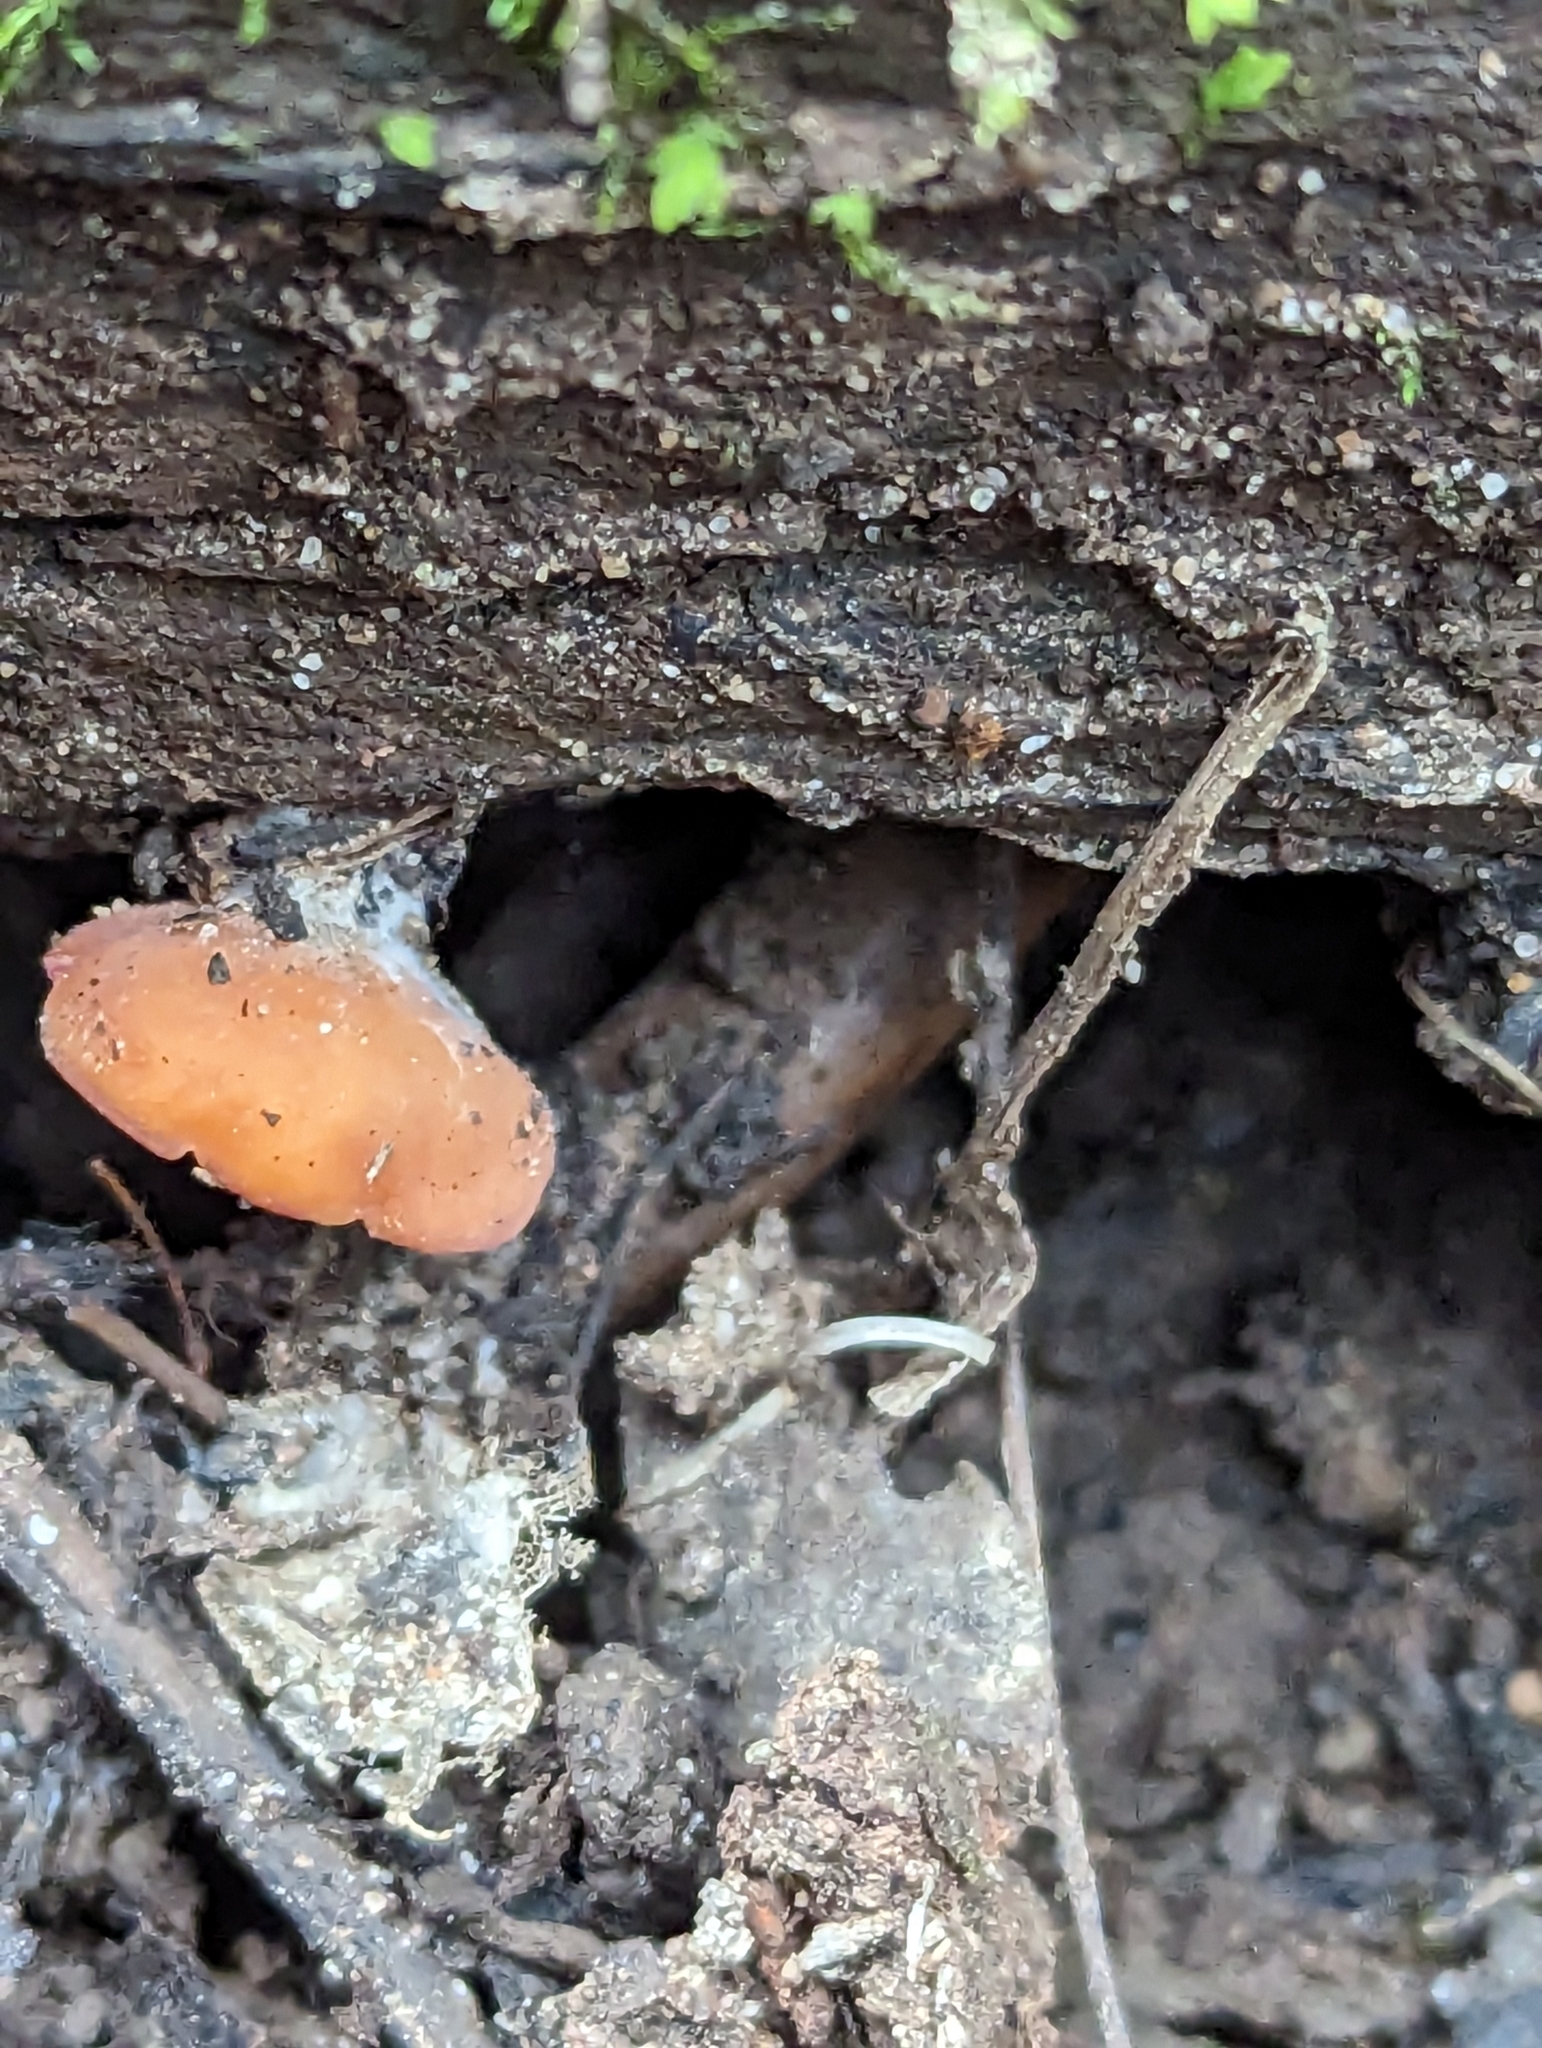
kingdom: Fungi
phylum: Ascomycota
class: Pezizomycetes
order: Pezizales
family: Sarcoscyphaceae
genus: Sarcoscypha
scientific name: Sarcoscypha
